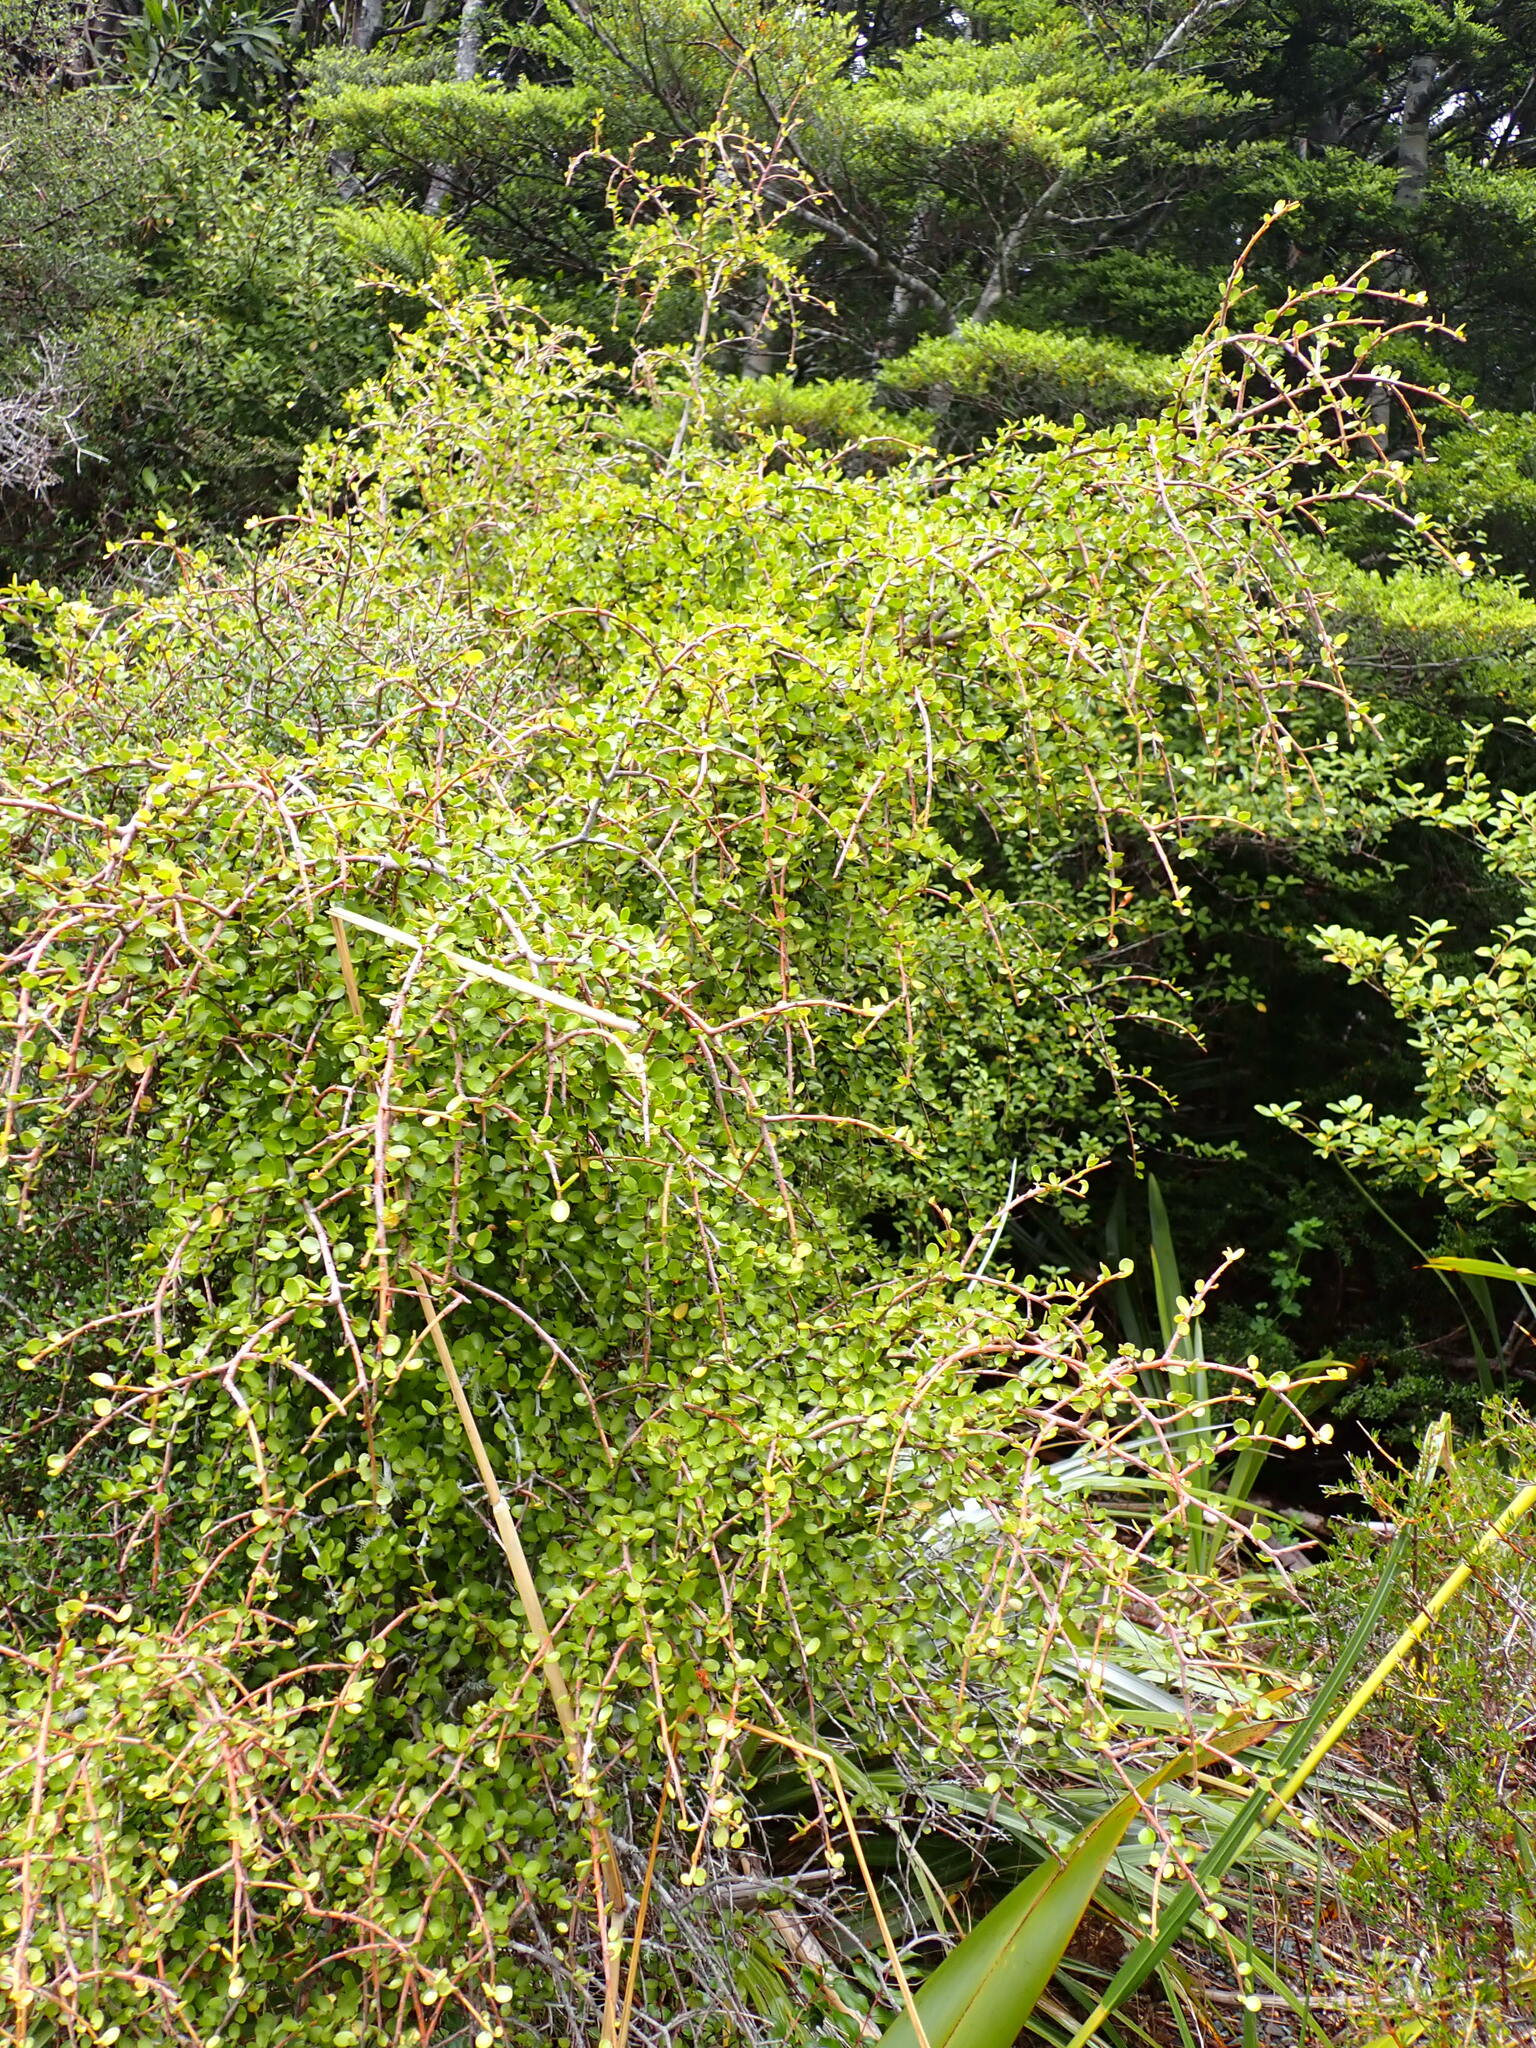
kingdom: Plantae
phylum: Tracheophyta
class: Magnoliopsida
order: Ericales
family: Primulaceae
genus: Myrsine
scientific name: Myrsine divaricata
